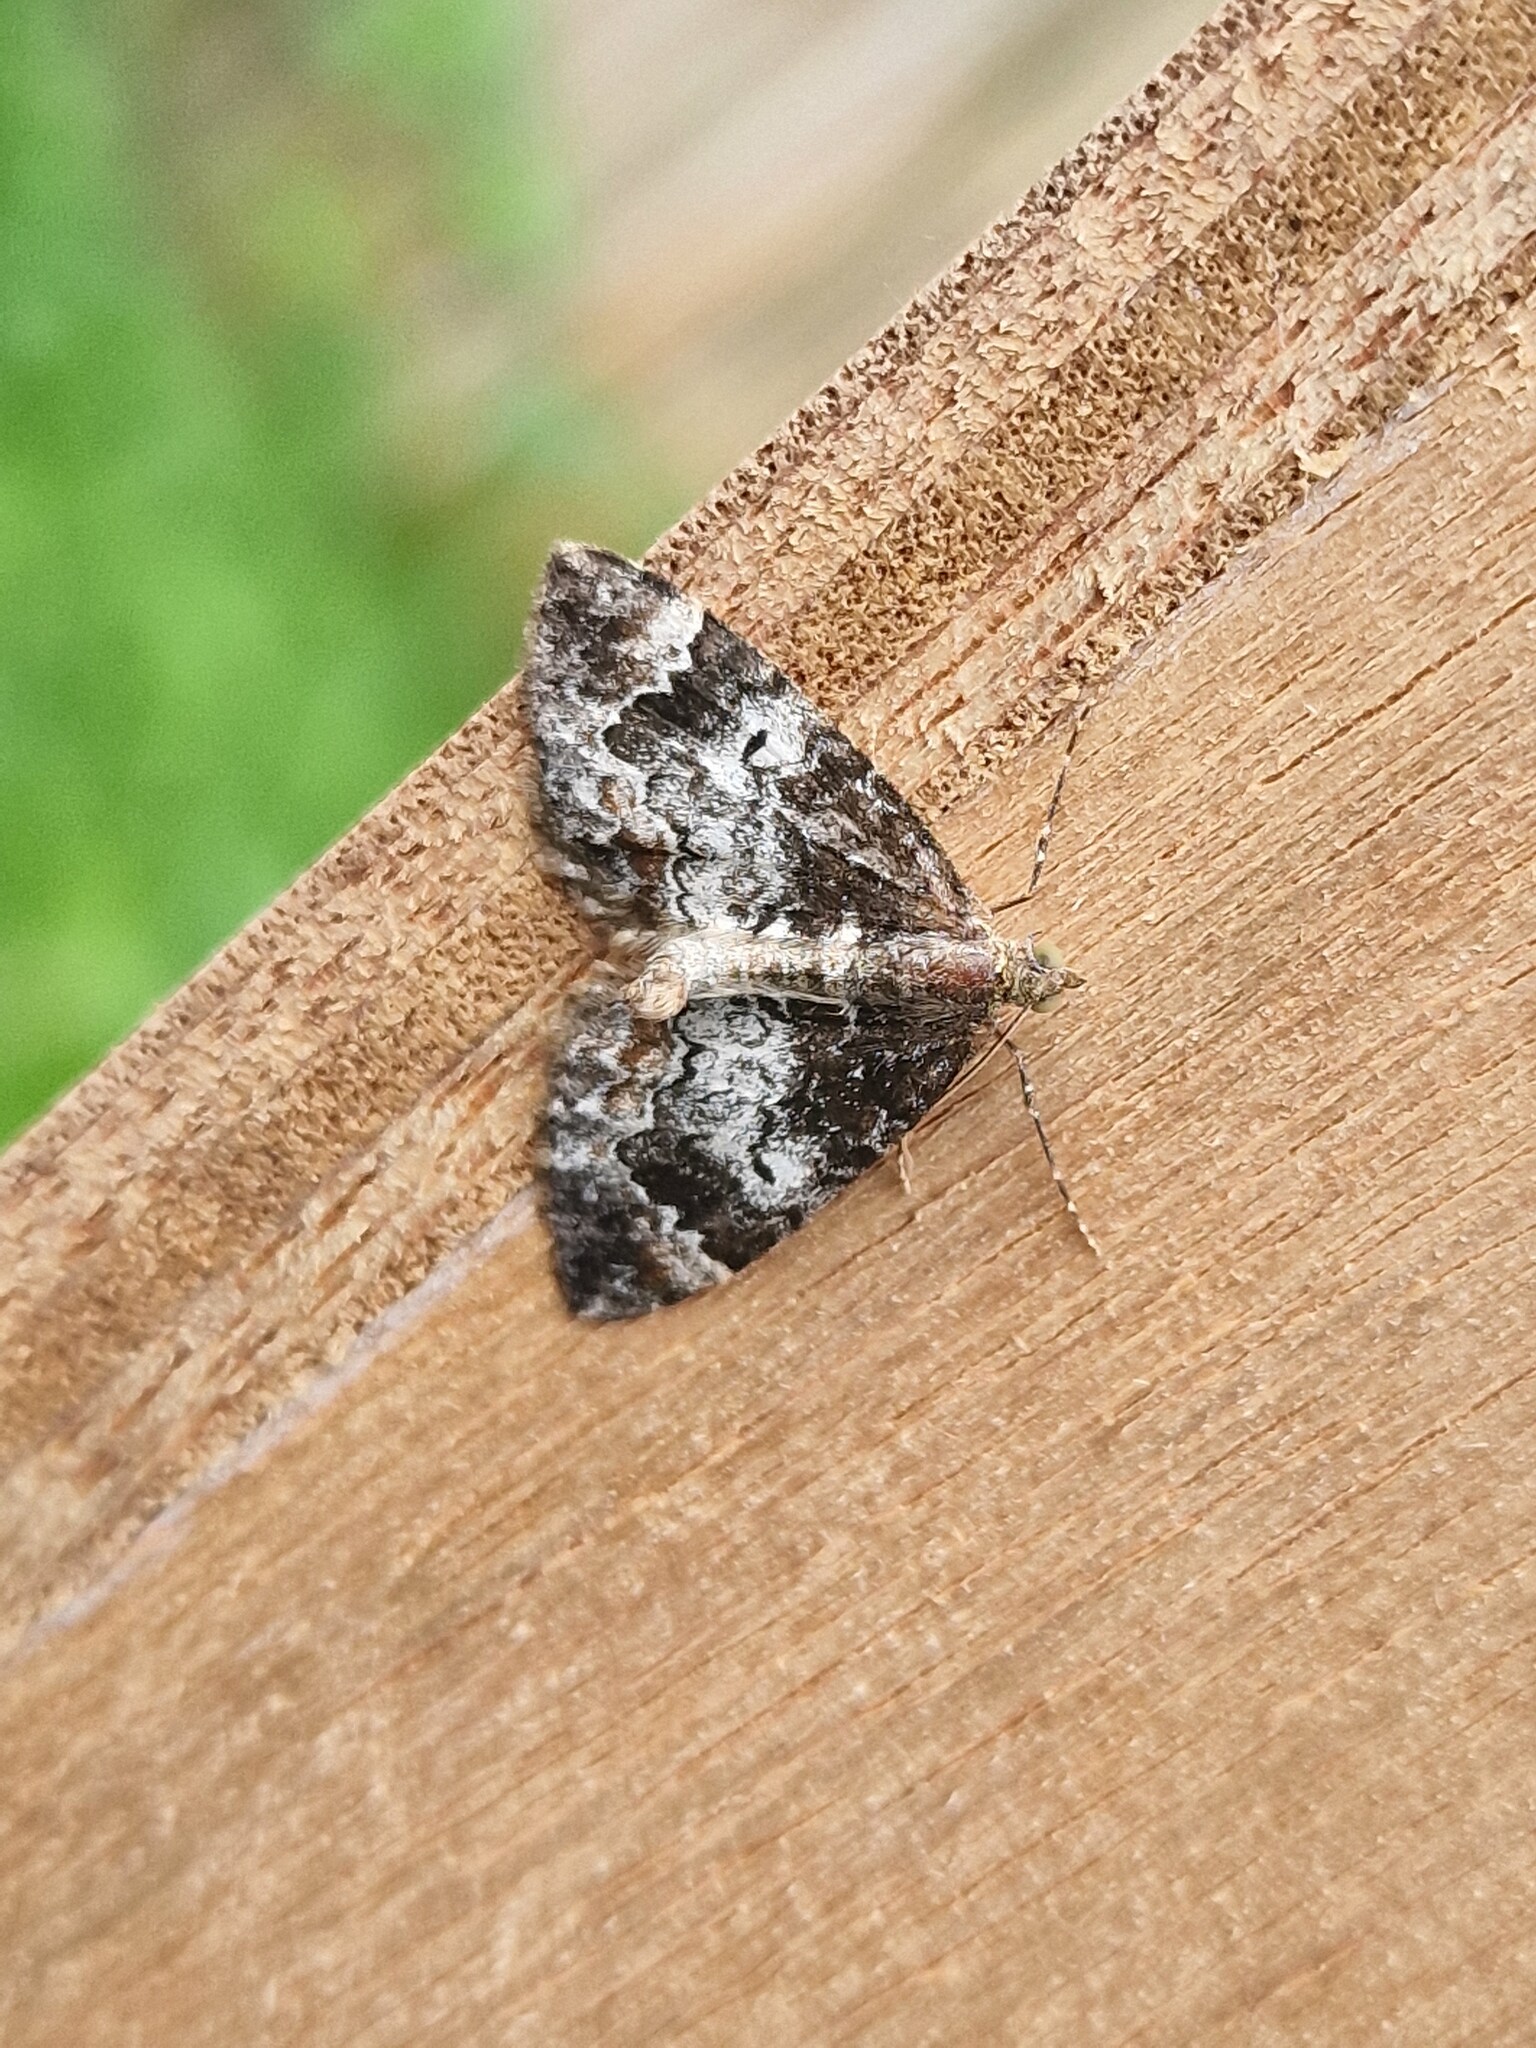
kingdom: Animalia
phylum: Arthropoda
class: Insecta
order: Lepidoptera
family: Geometridae
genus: Dysstroma
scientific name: Dysstroma truncata
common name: Common marbled carpet
